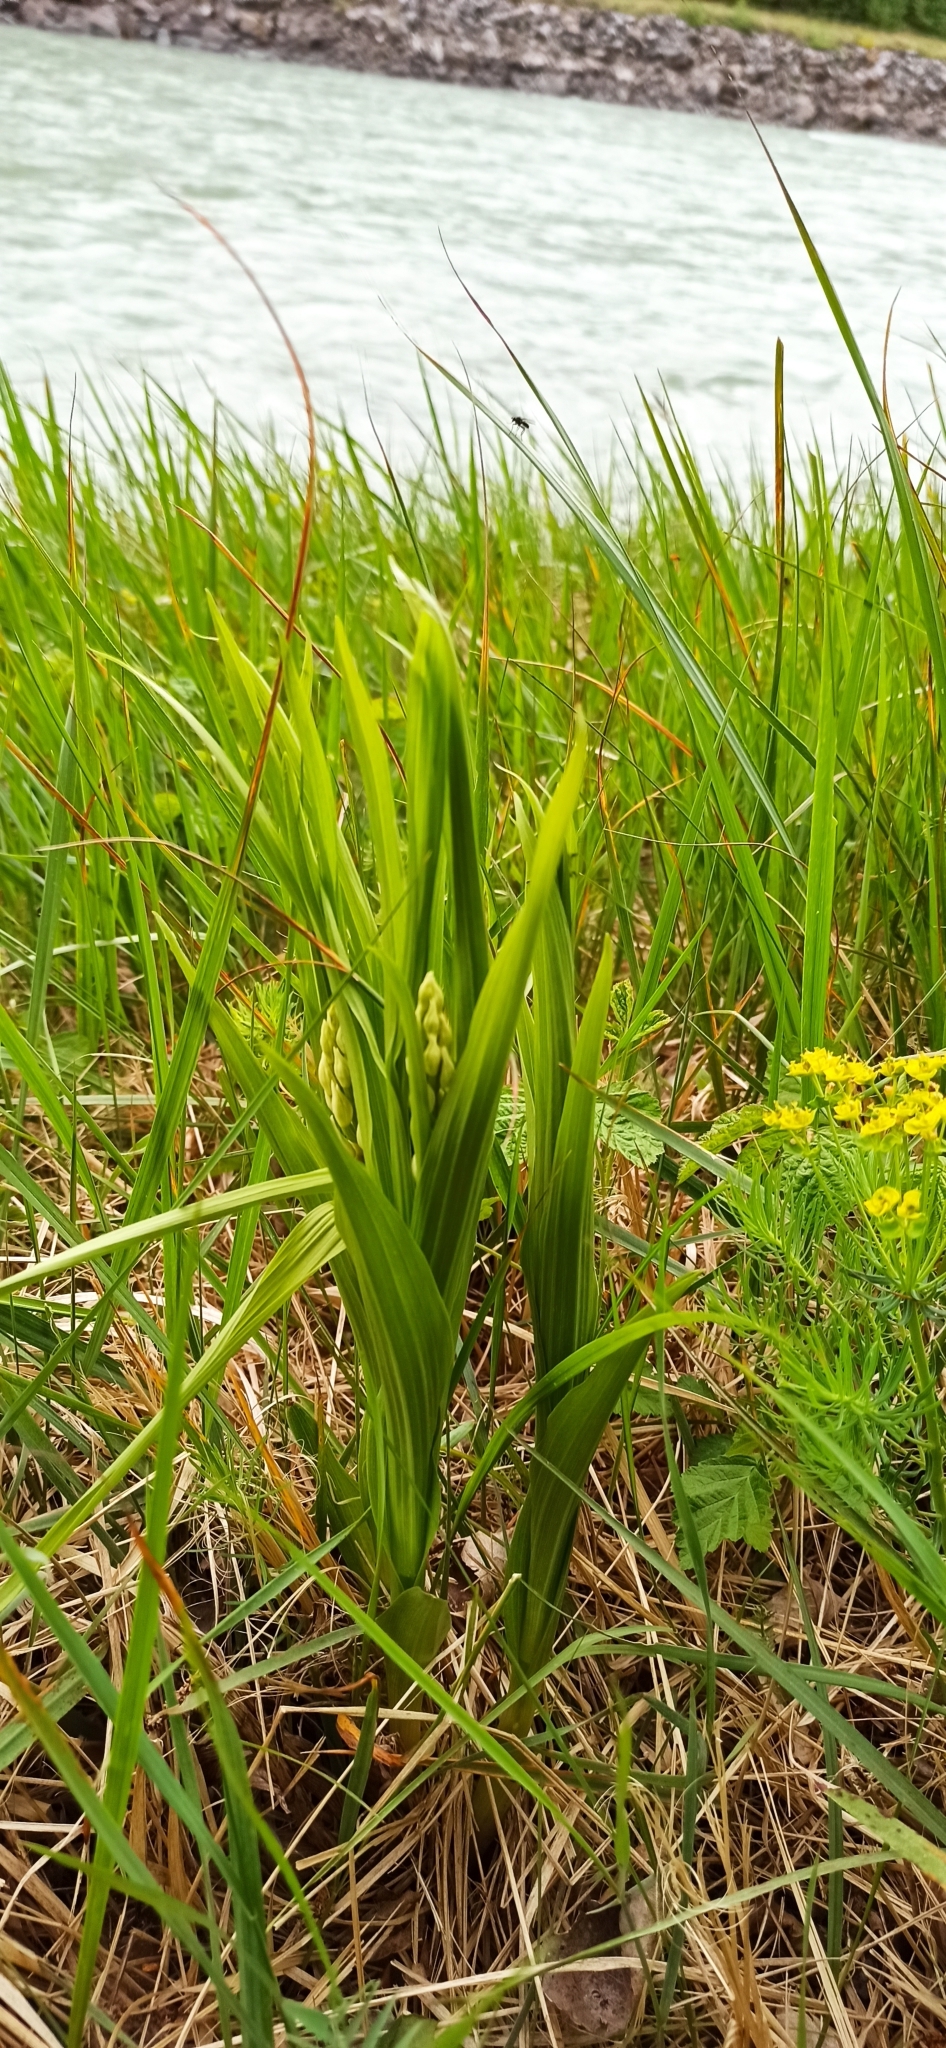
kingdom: Plantae
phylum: Tracheophyta
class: Liliopsida
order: Asparagales
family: Orchidaceae
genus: Cephalanthera
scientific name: Cephalanthera longifolia
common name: Narrow-leaved helleborine
